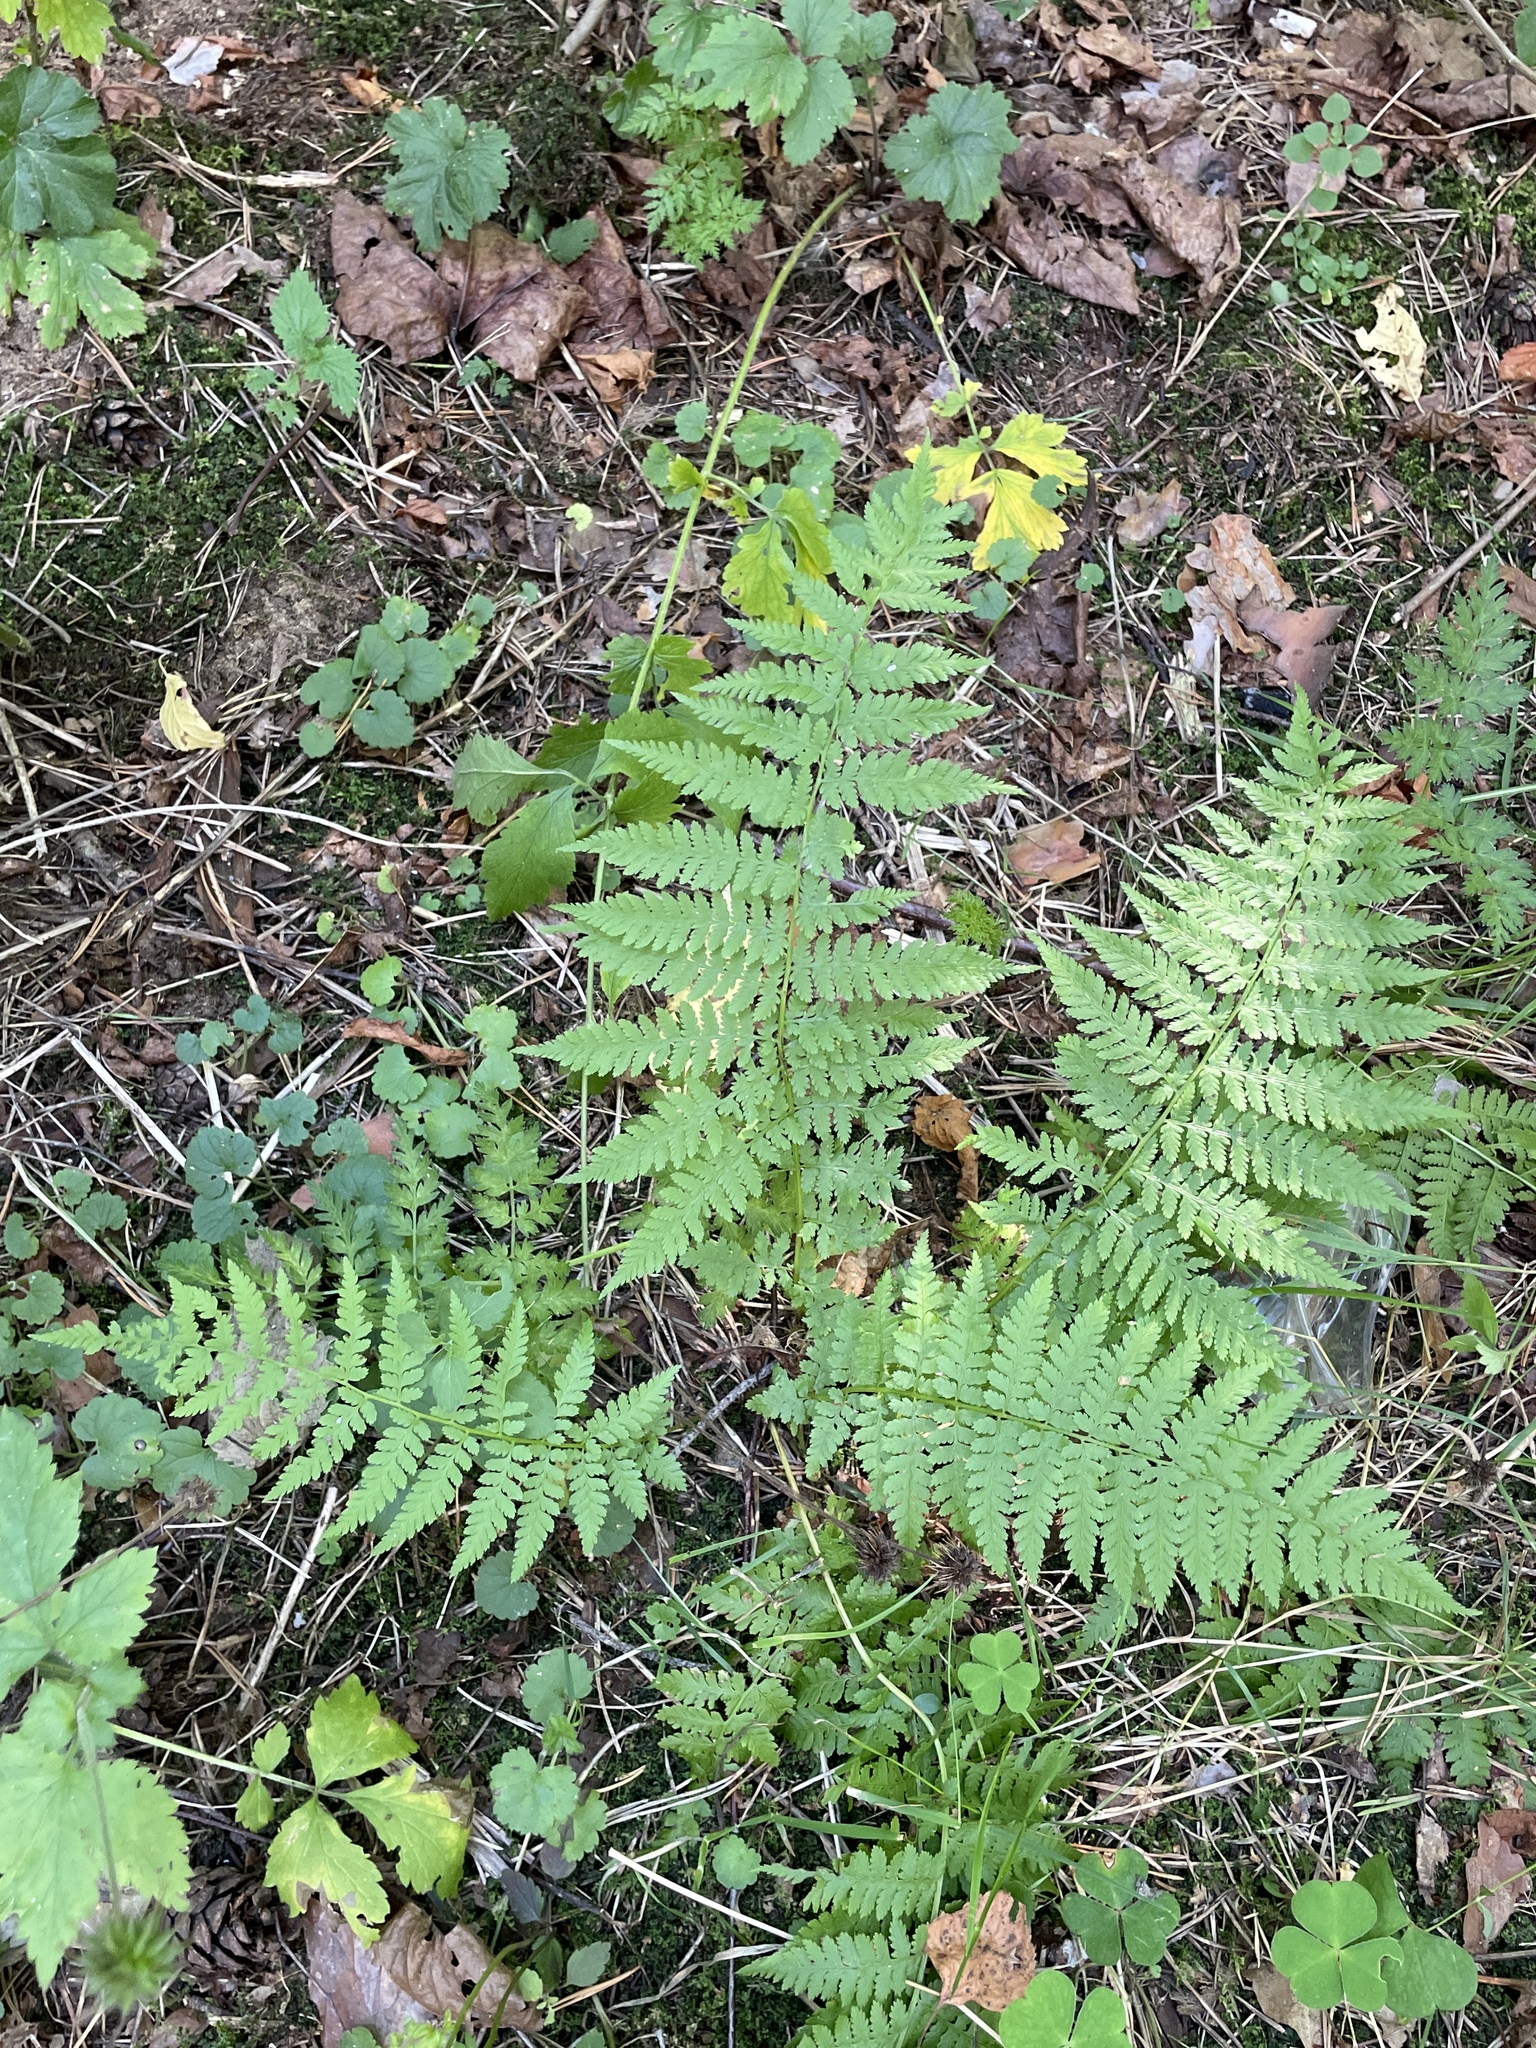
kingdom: Plantae
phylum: Tracheophyta
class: Polypodiopsida
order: Polypodiales
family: Athyriaceae
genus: Athyrium
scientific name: Athyrium filix-femina
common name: Lady fern
